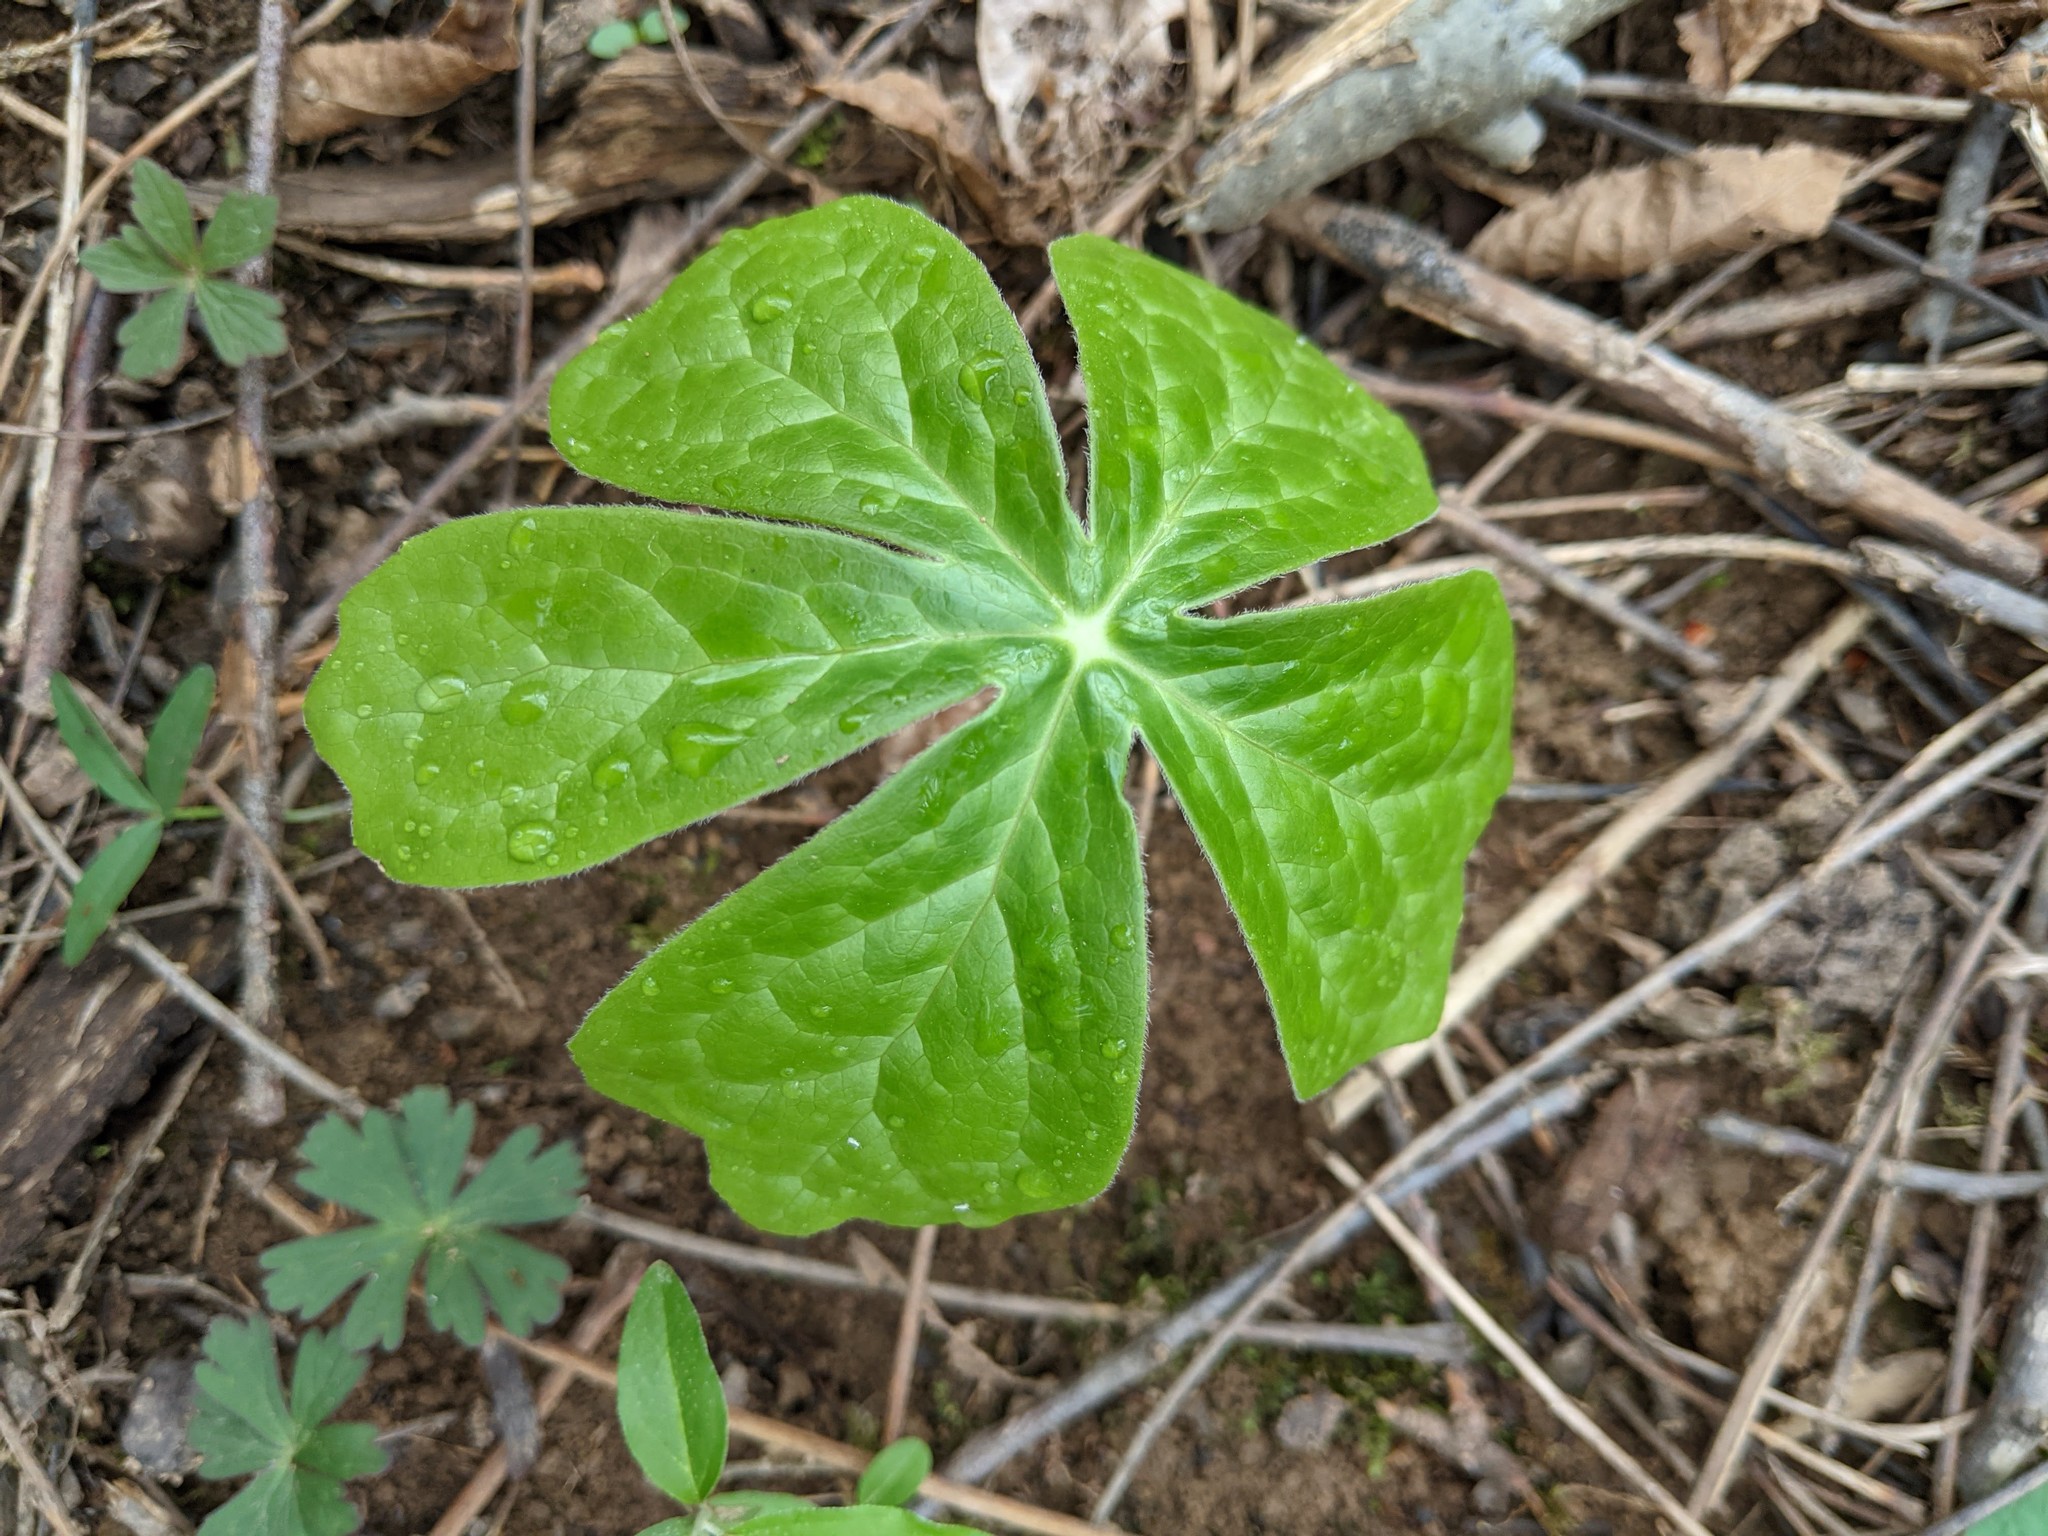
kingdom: Plantae
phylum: Tracheophyta
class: Magnoliopsida
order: Ranunculales
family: Berberidaceae
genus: Podophyllum
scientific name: Podophyllum peltatum
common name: Wild mandrake
